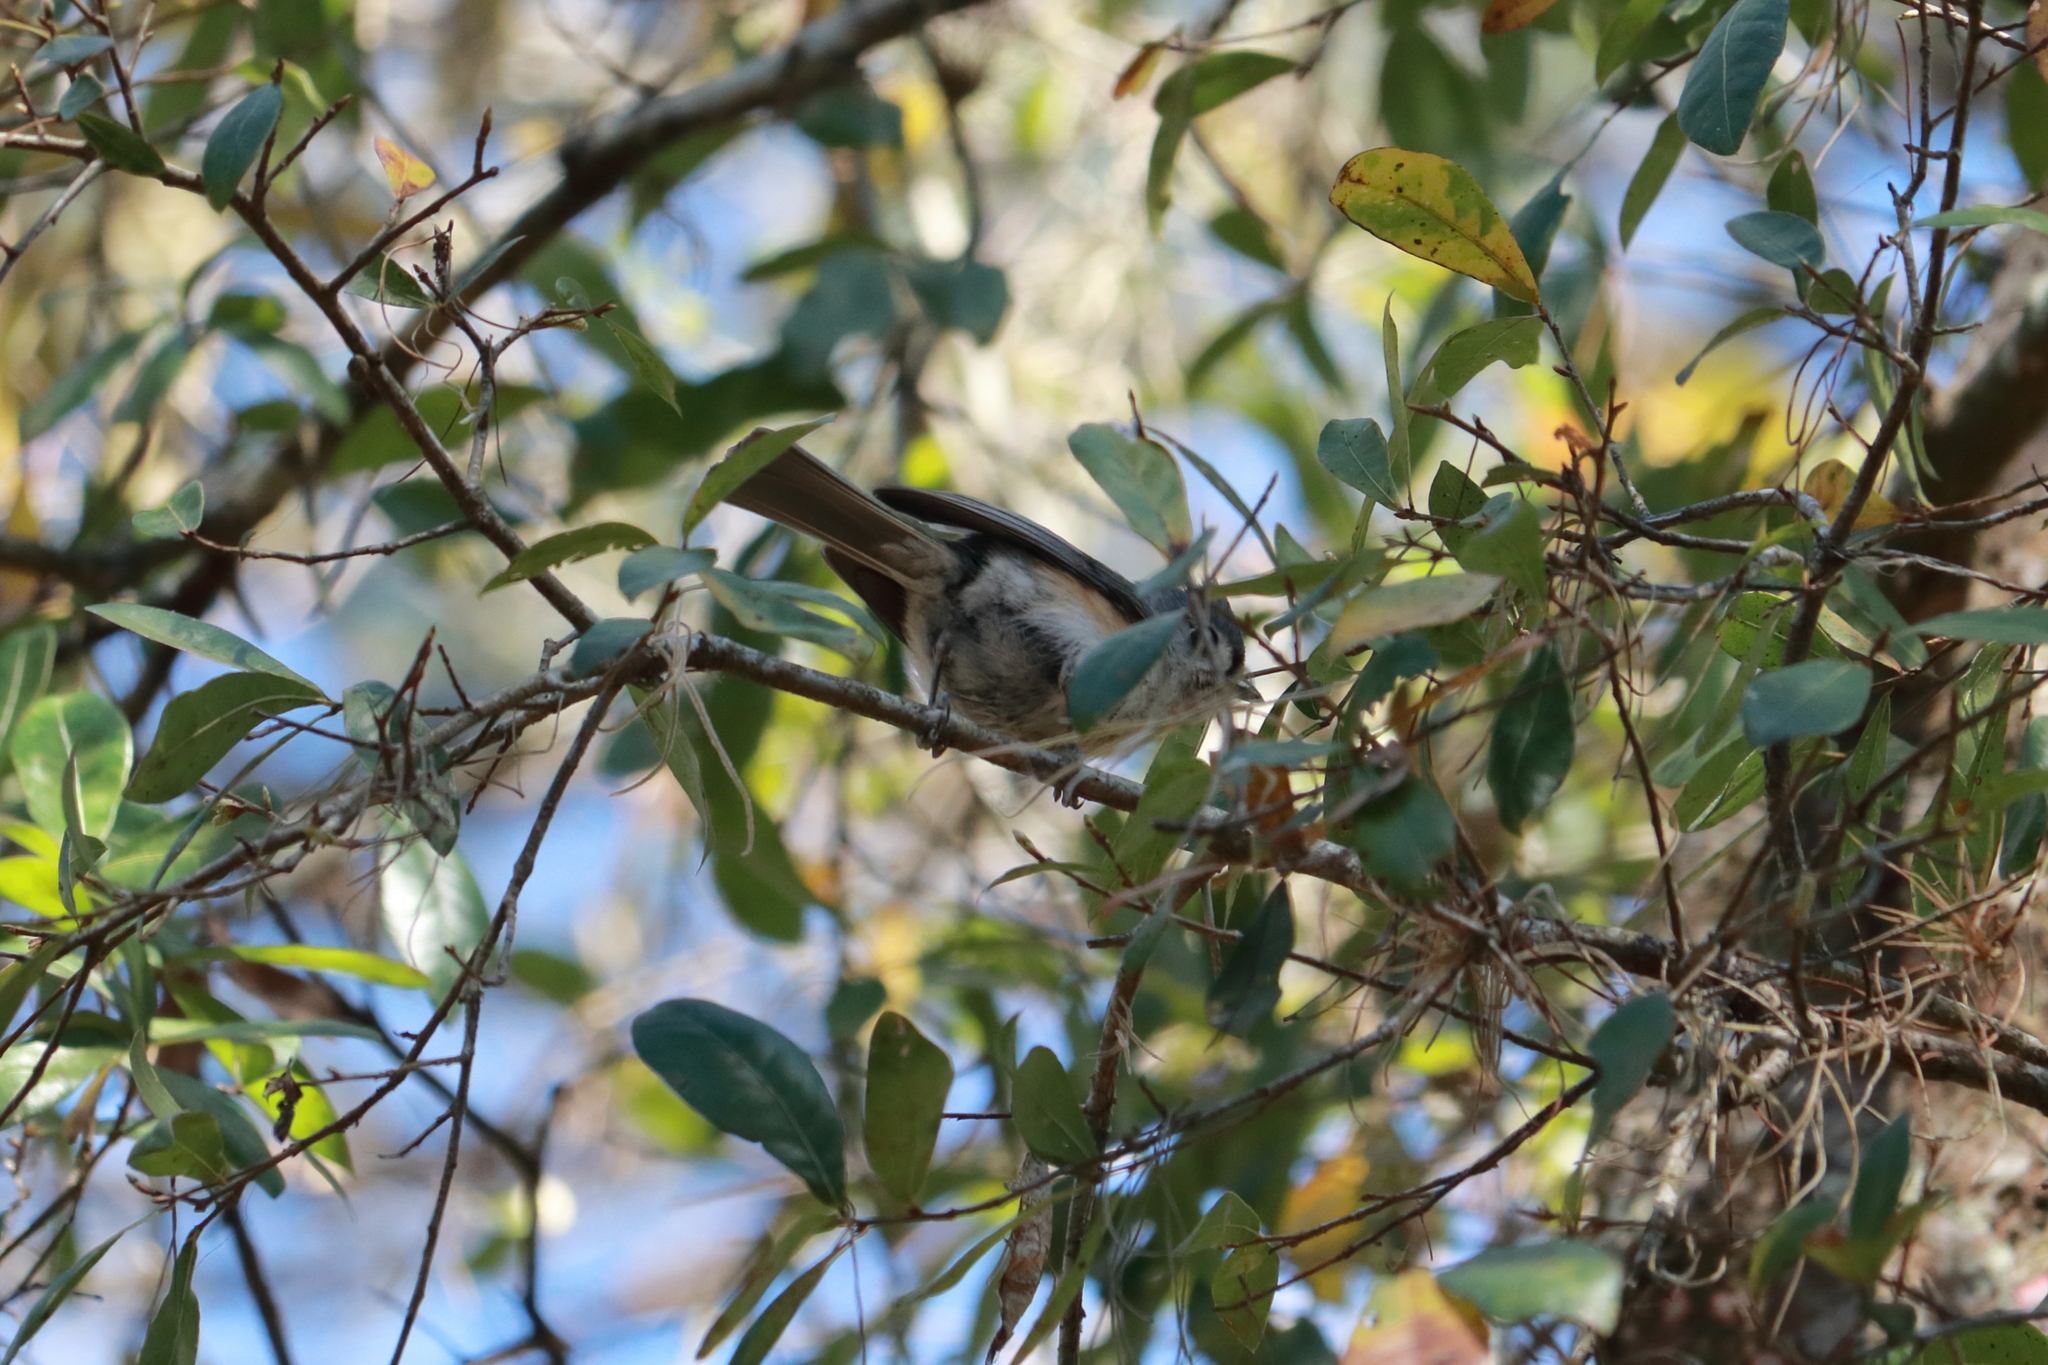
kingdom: Animalia
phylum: Chordata
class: Aves
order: Passeriformes
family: Paridae
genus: Baeolophus
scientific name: Baeolophus bicolor
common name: Tufted titmouse
